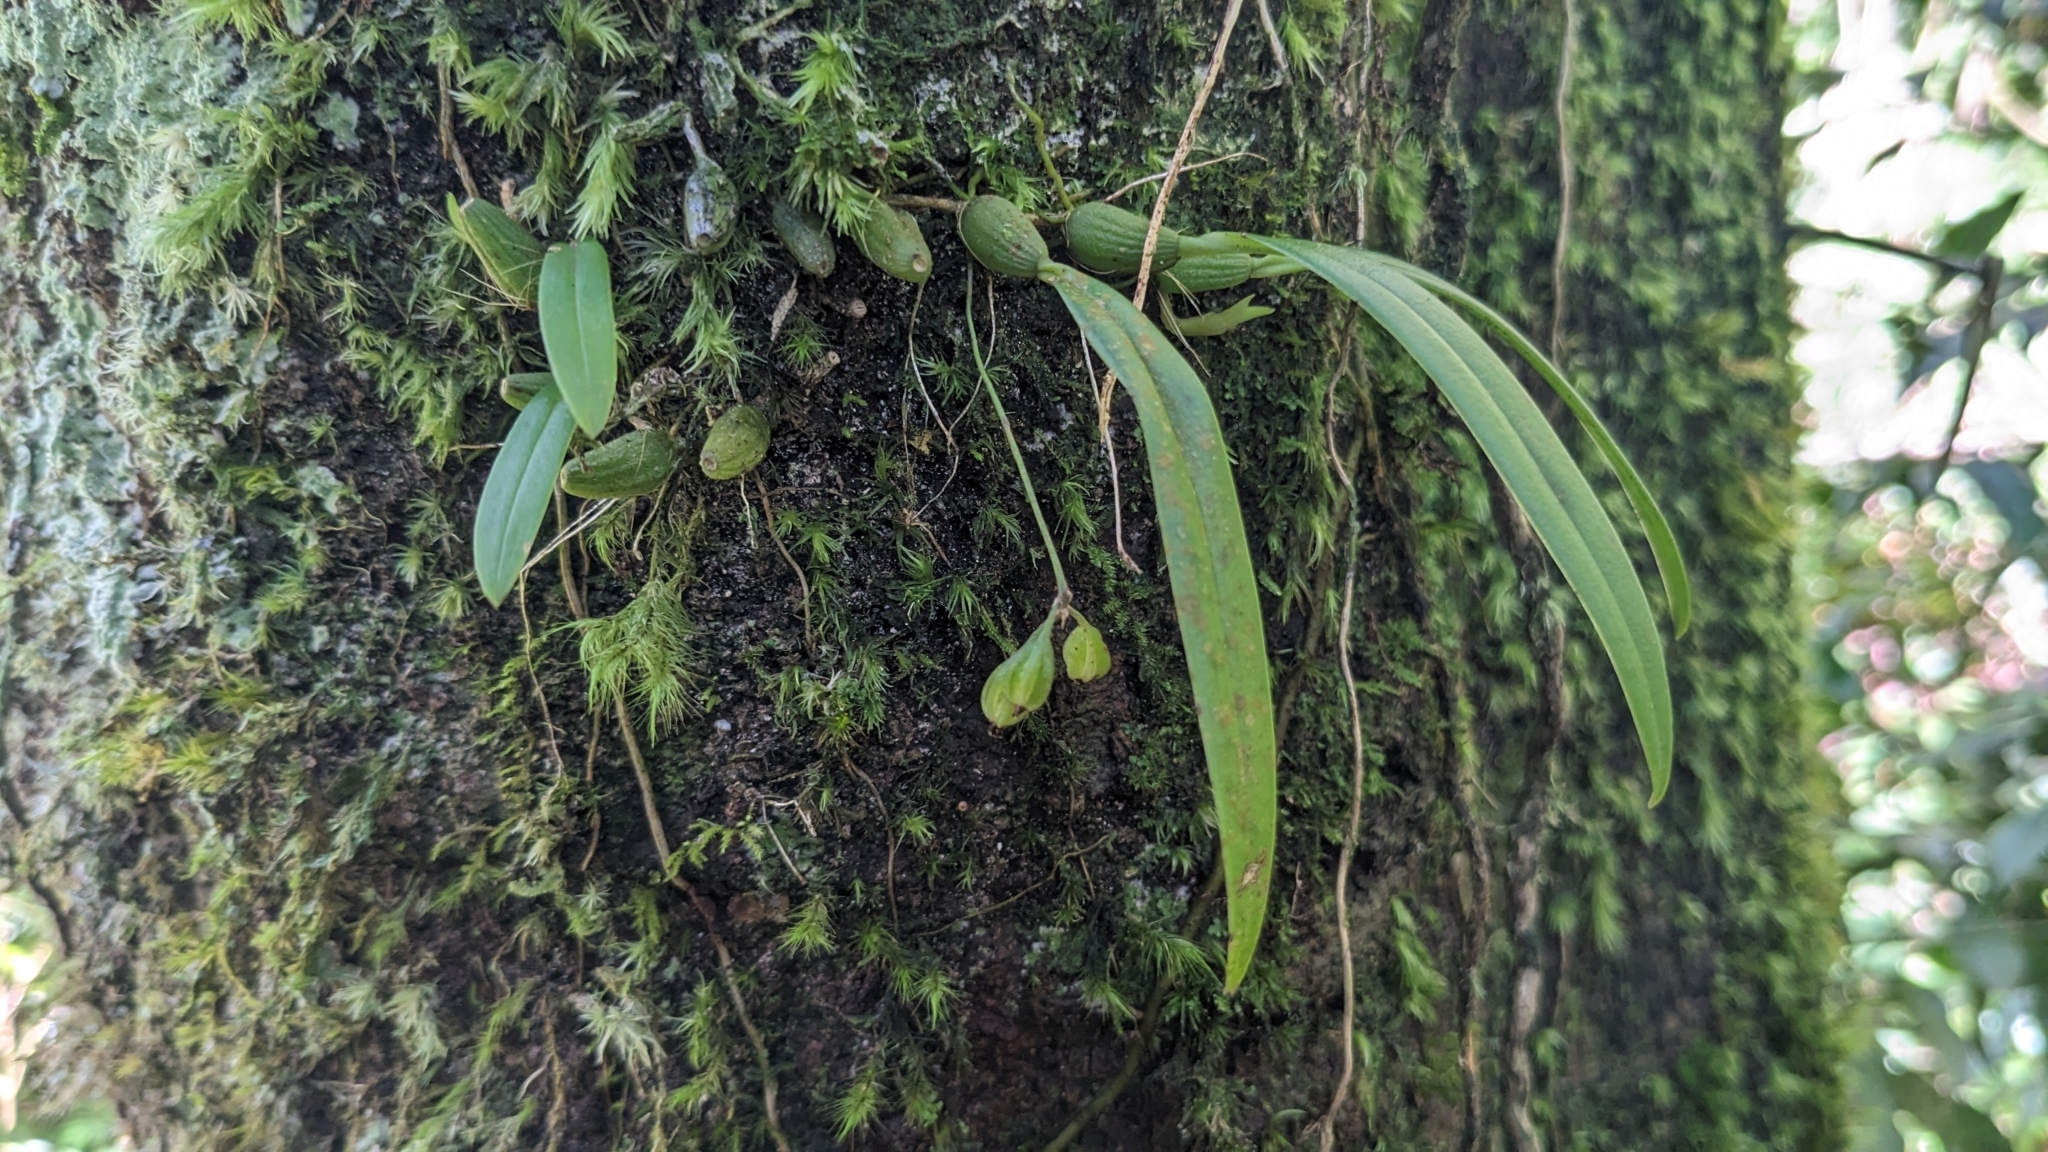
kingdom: Plantae
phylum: Tracheophyta
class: Liliopsida
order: Asparagales
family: Orchidaceae
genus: Bulbophyllum
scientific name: Bulbophyllum japonicum
